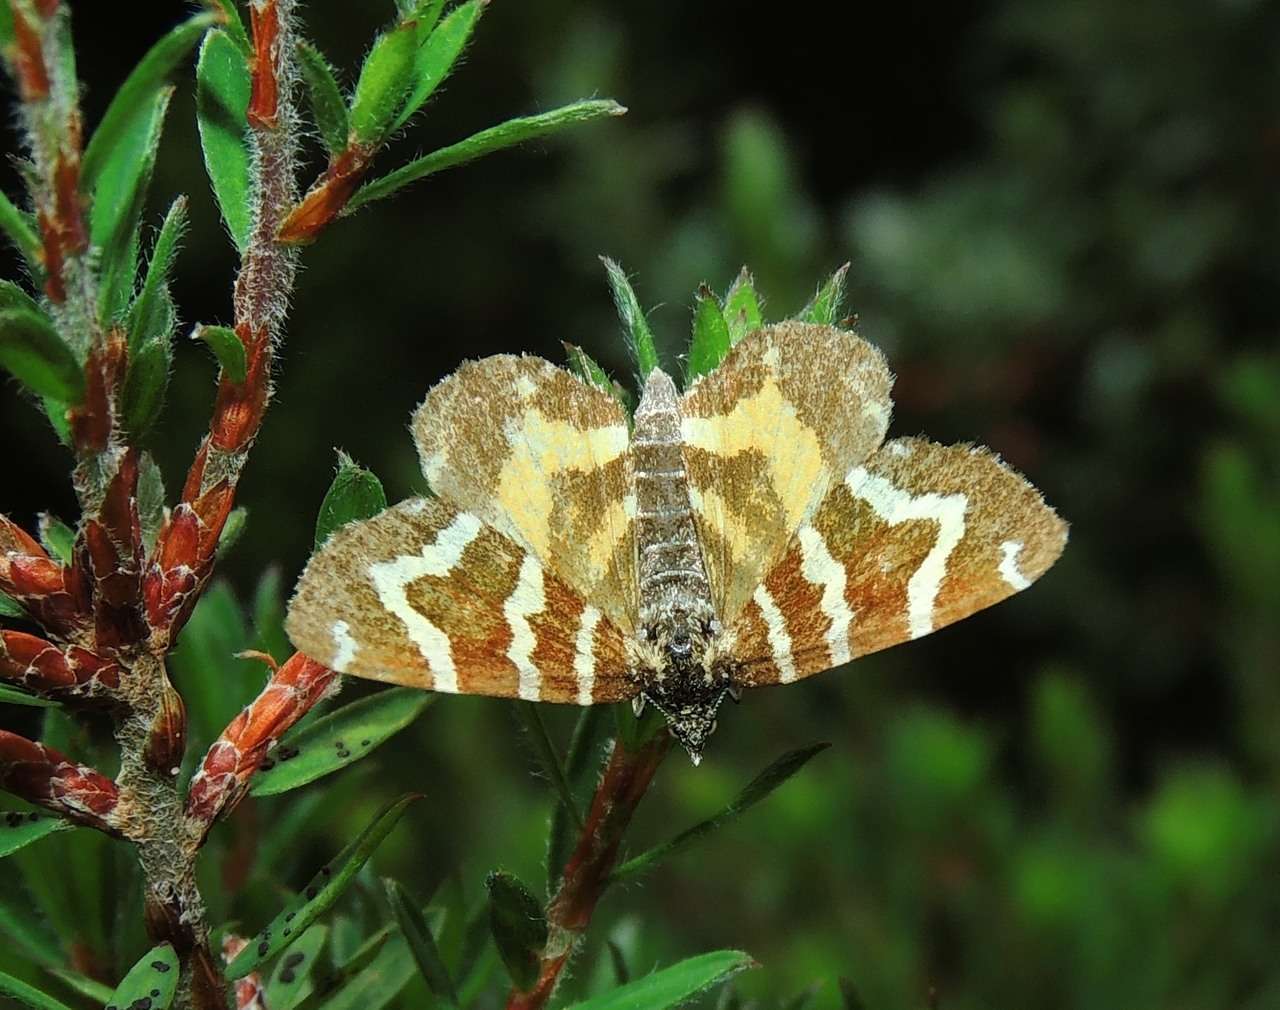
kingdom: Animalia
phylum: Arthropoda
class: Insecta
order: Lepidoptera
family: Geometridae
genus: Chrysolarentia
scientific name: Chrysolarentia stereozona
